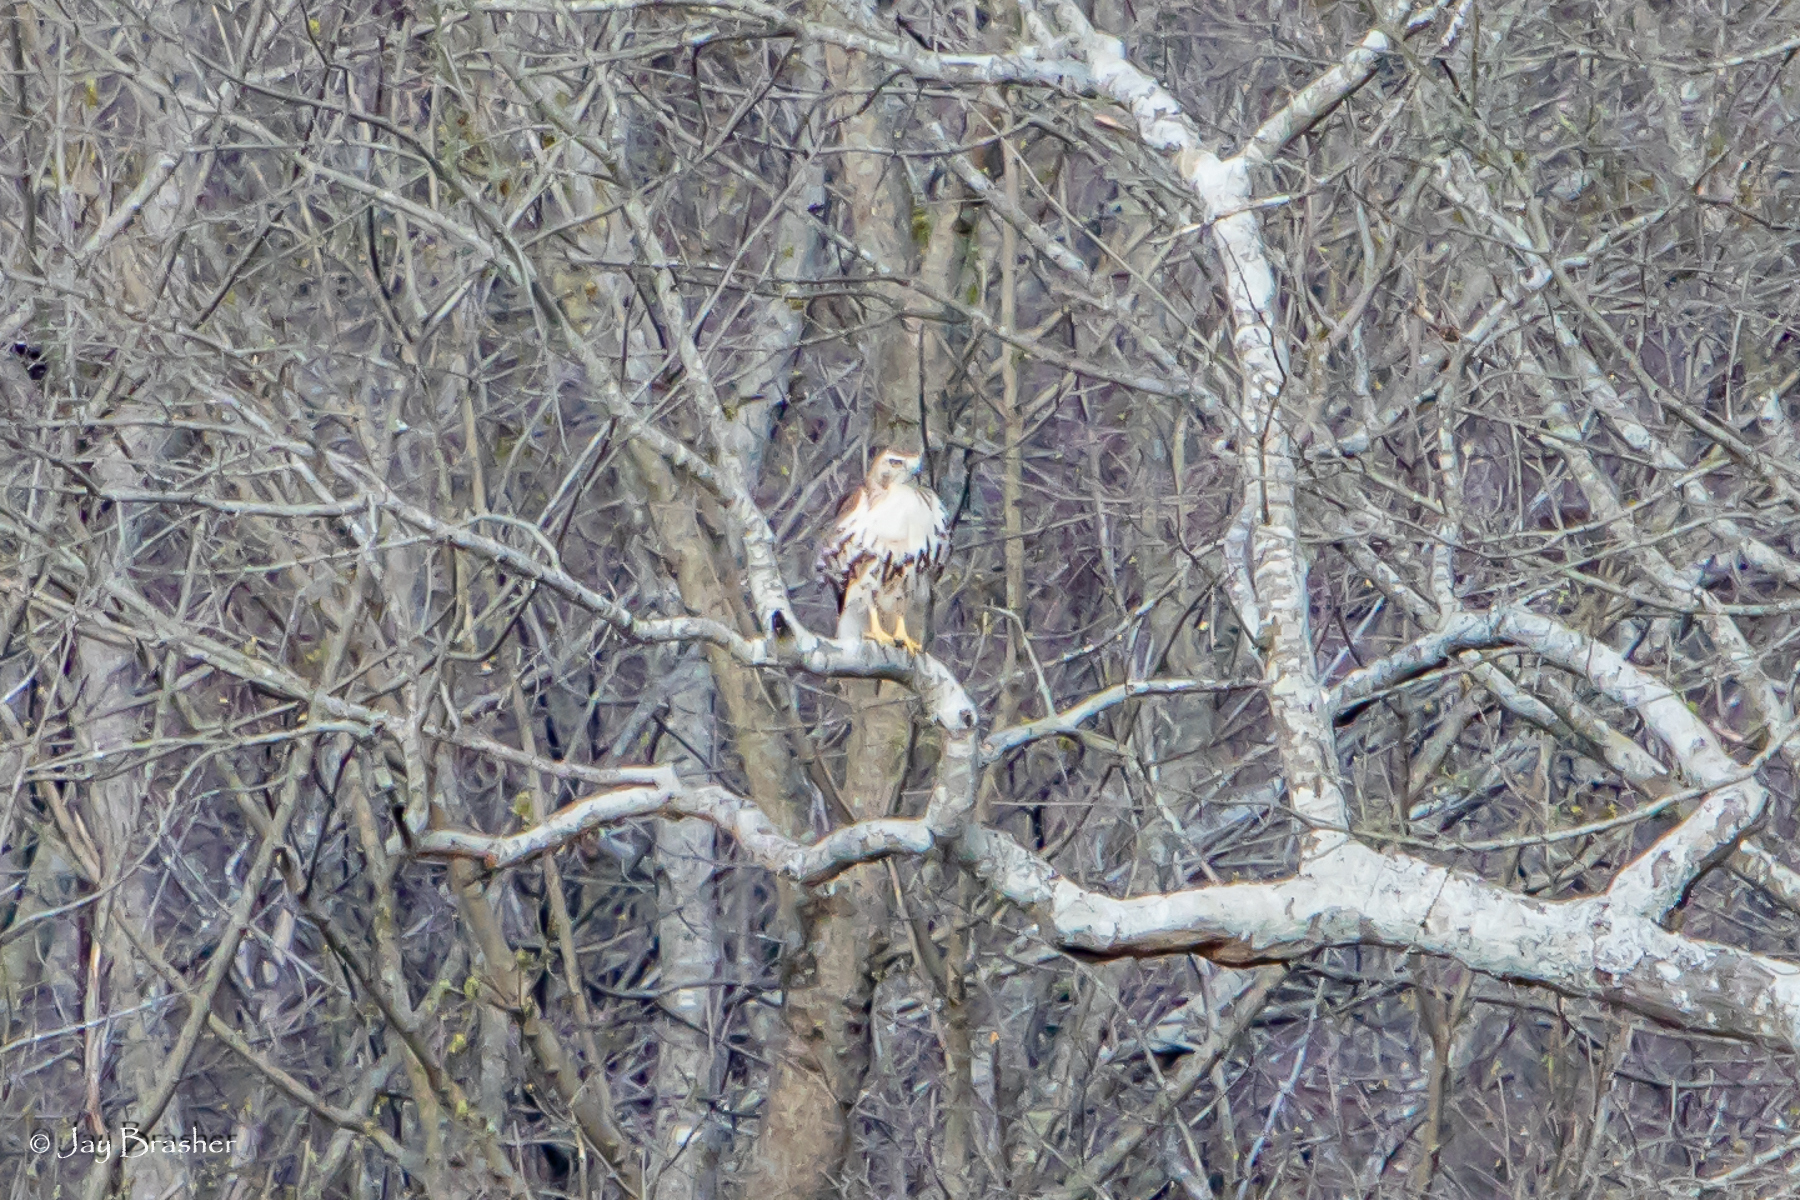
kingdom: Animalia
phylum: Chordata
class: Aves
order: Accipitriformes
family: Accipitridae
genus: Buteo
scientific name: Buteo jamaicensis
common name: Red-tailed hawk
